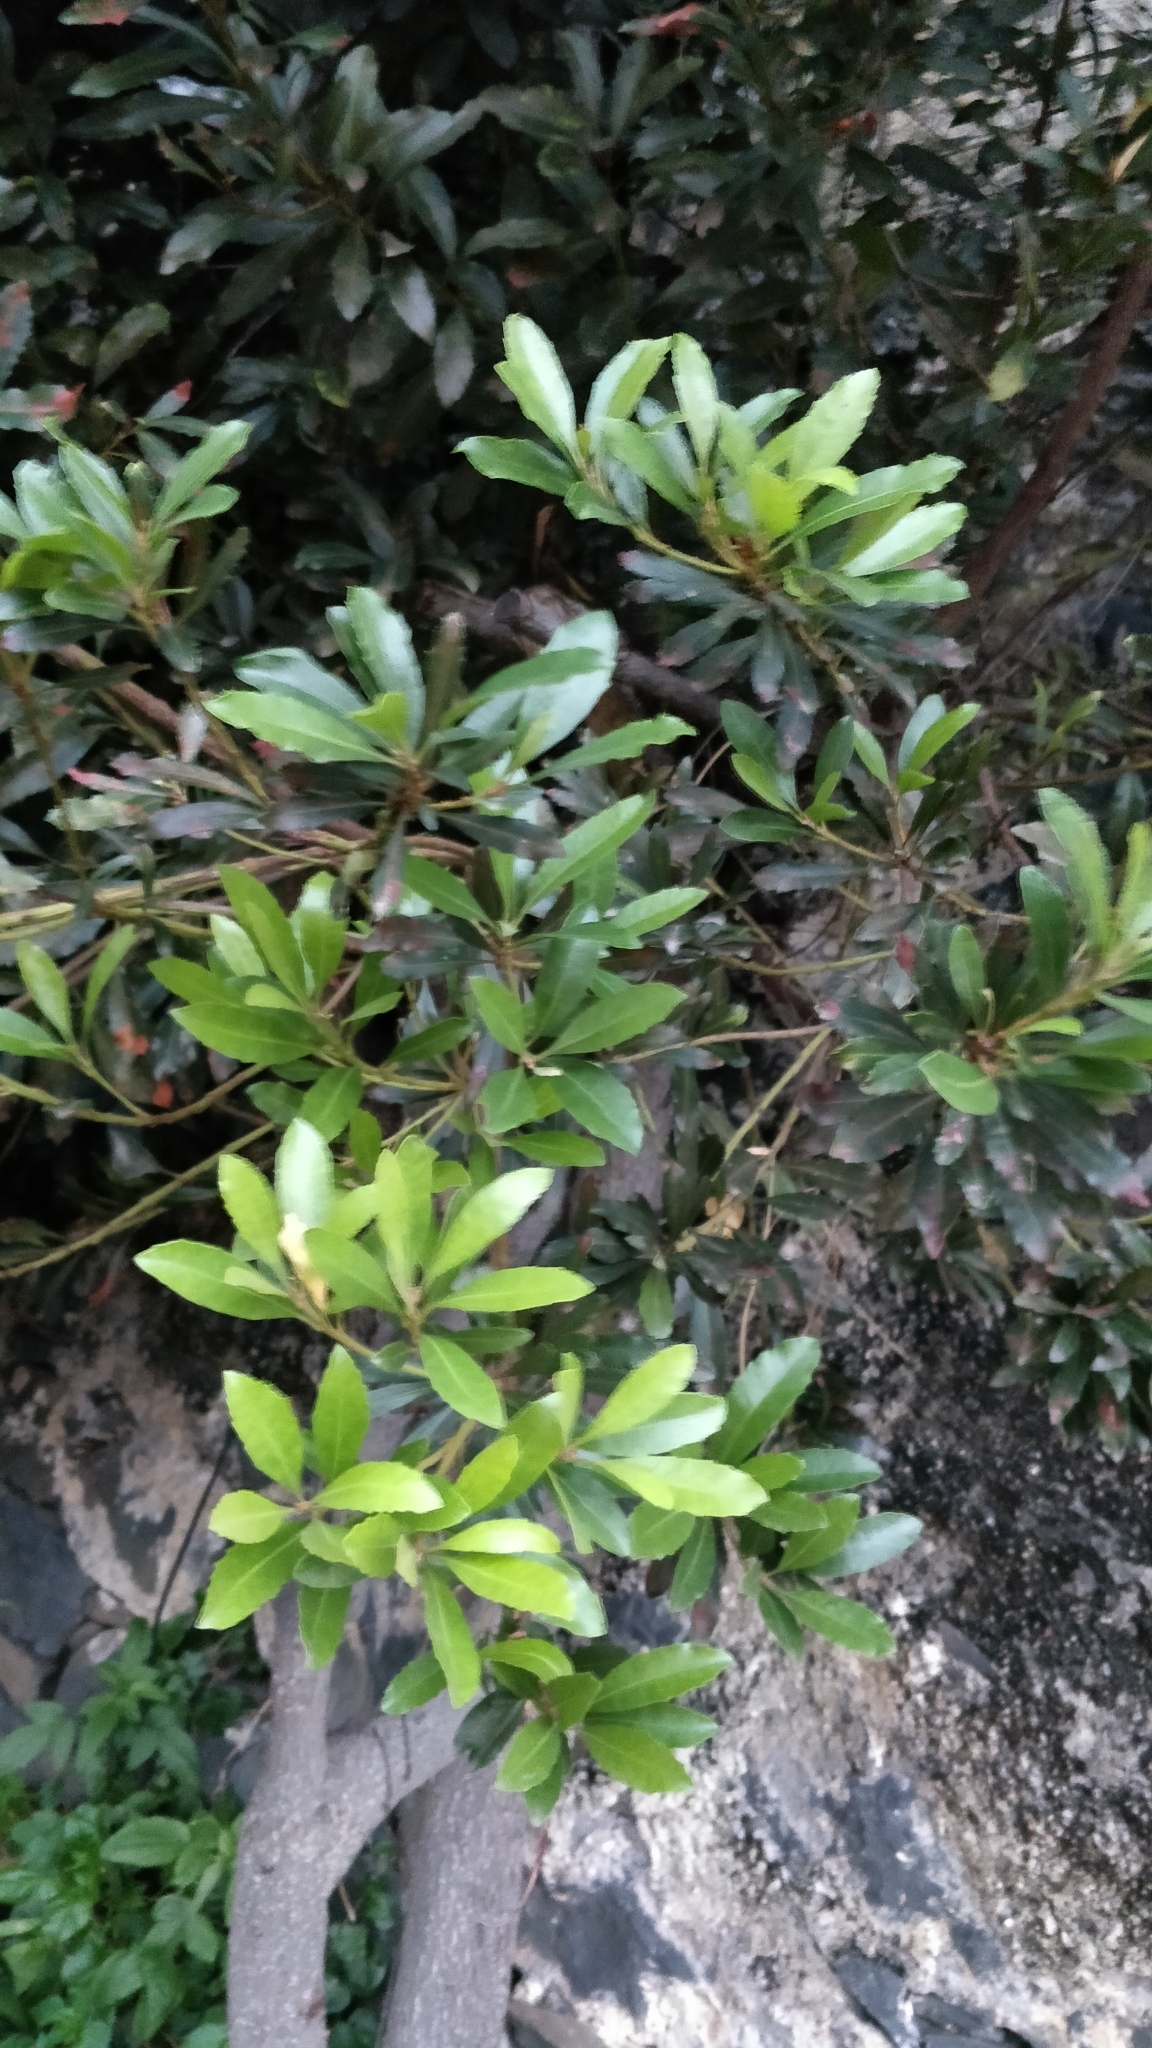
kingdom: Plantae
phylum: Tracheophyta
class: Magnoliopsida
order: Fagales
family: Myricaceae
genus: Morella
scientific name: Morella faya
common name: Firetree
